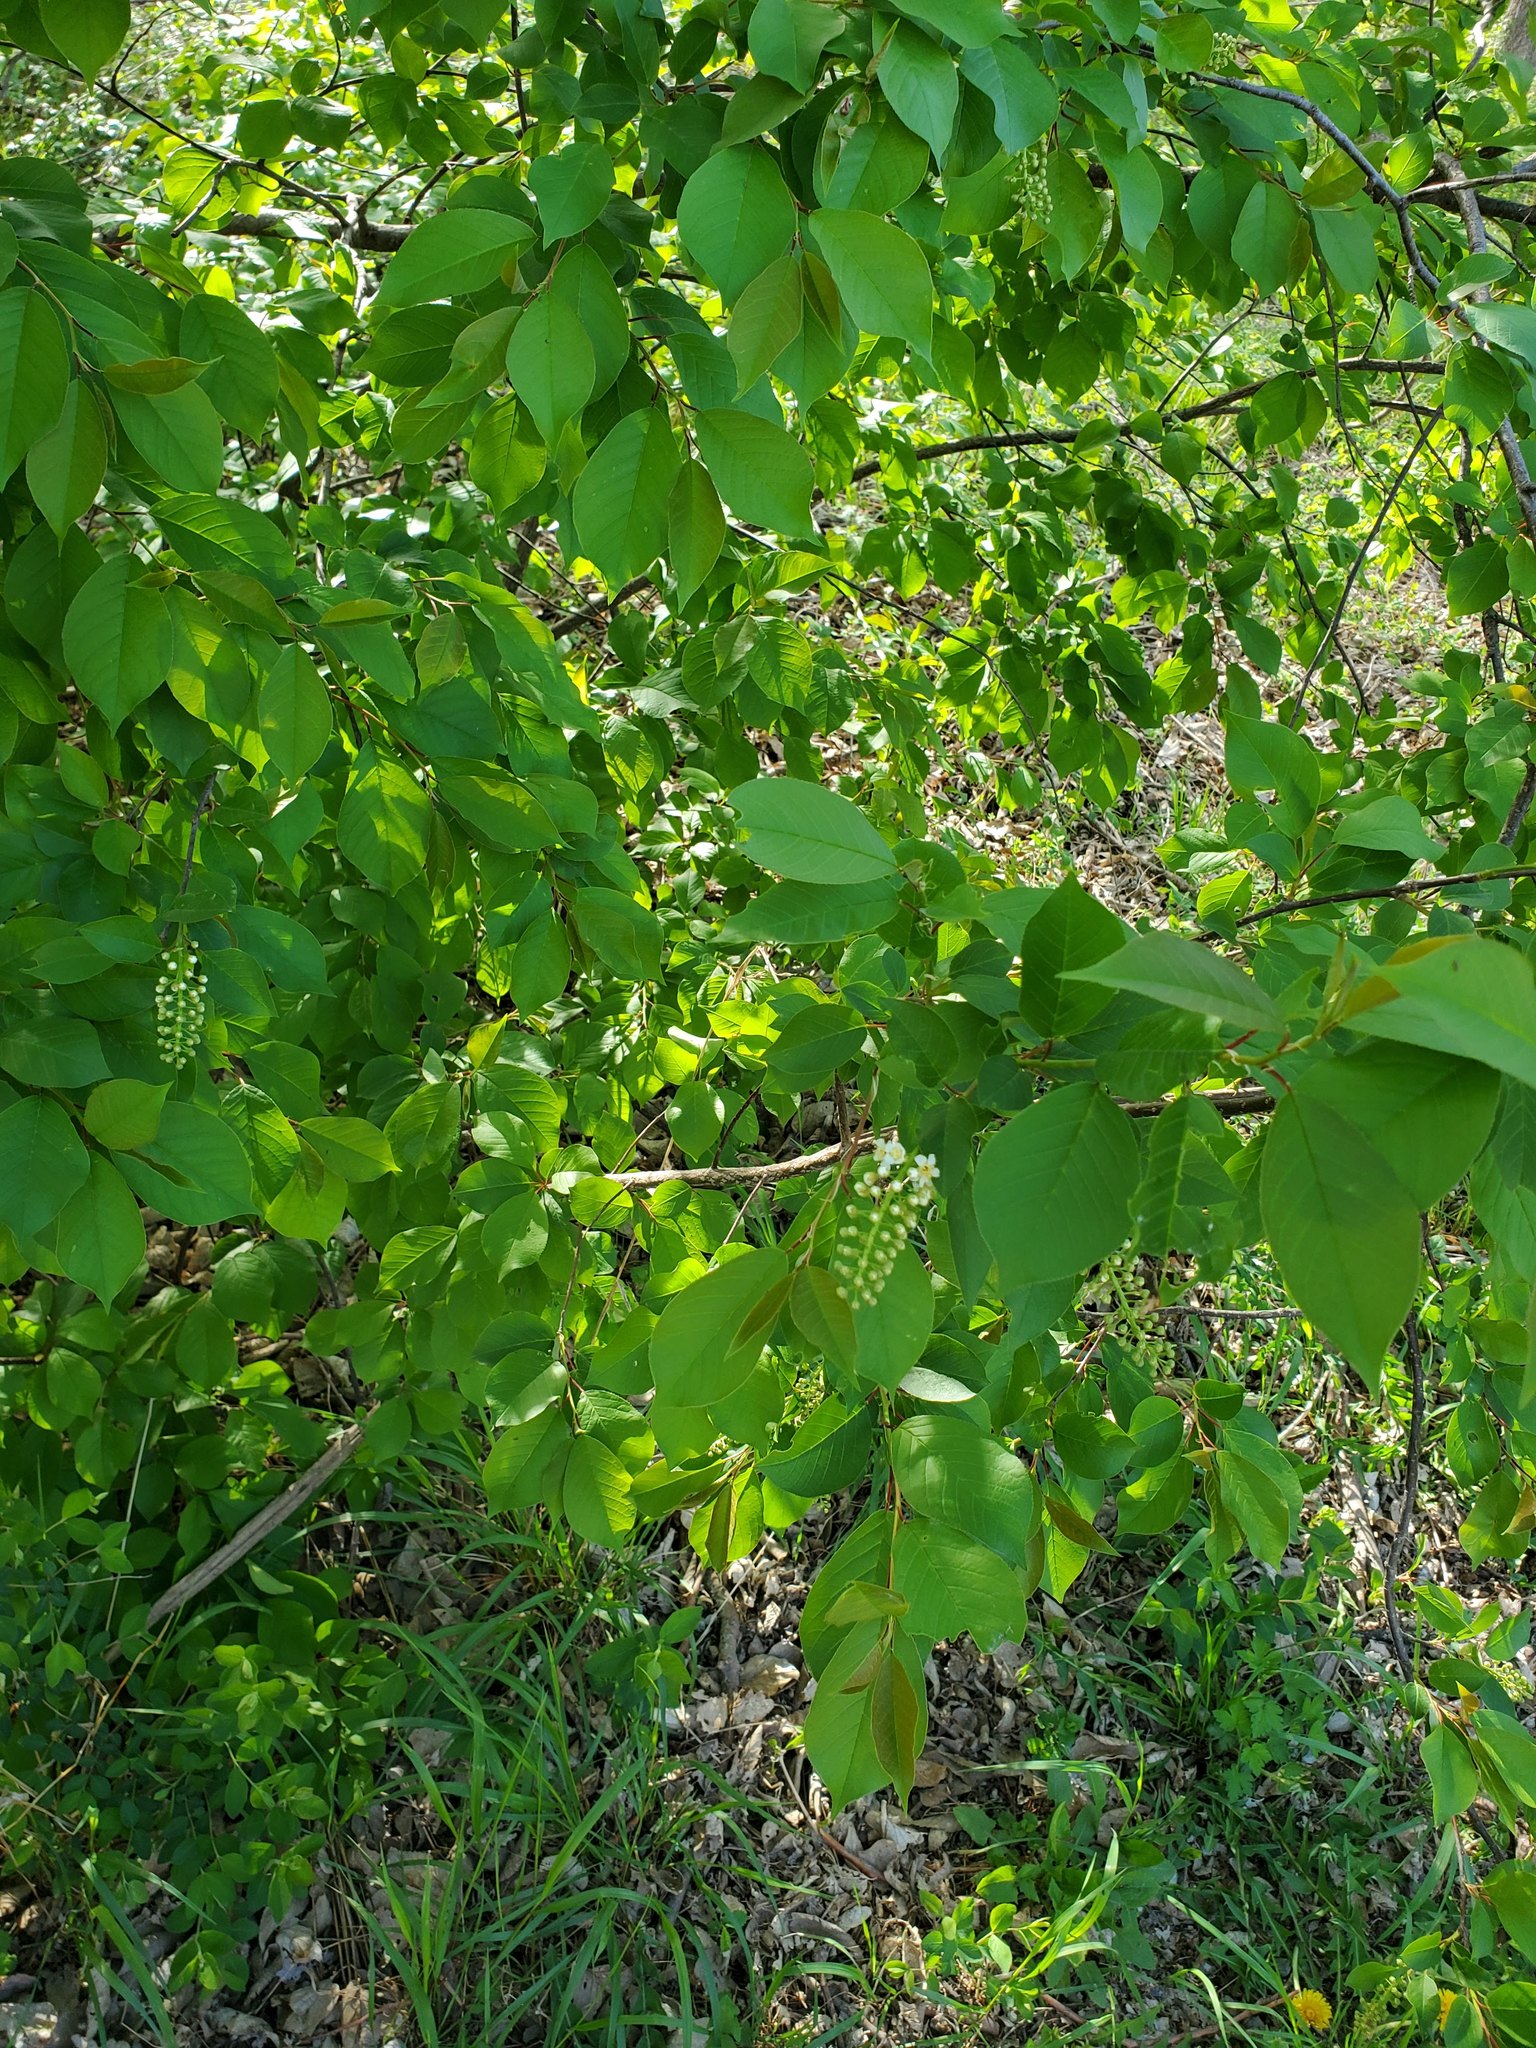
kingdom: Plantae
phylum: Tracheophyta
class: Magnoliopsida
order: Rosales
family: Rosaceae
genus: Prunus
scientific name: Prunus virginiana
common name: Chokecherry
